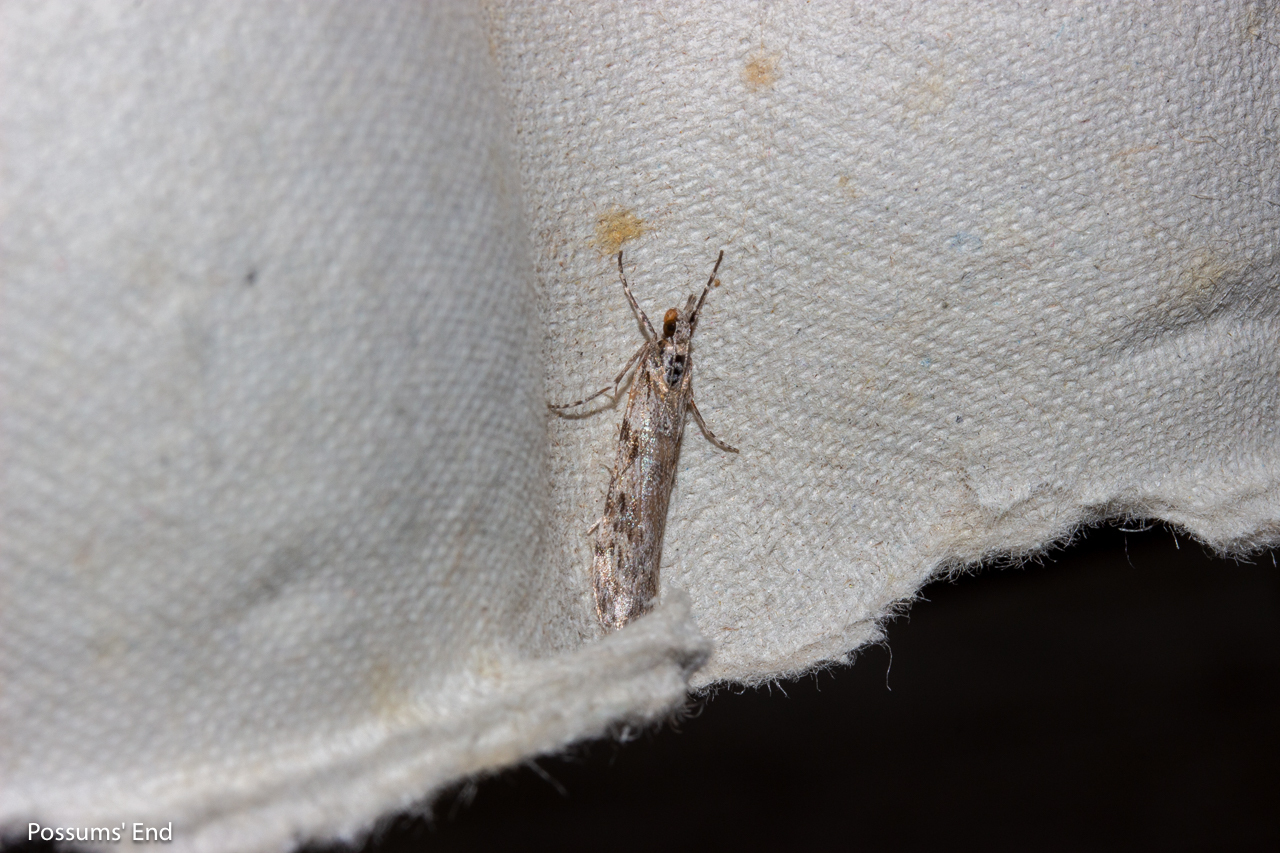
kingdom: Animalia
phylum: Arthropoda
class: Insecta
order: Lepidoptera
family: Crambidae
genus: Scoparia
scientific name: Scoparia halopis
